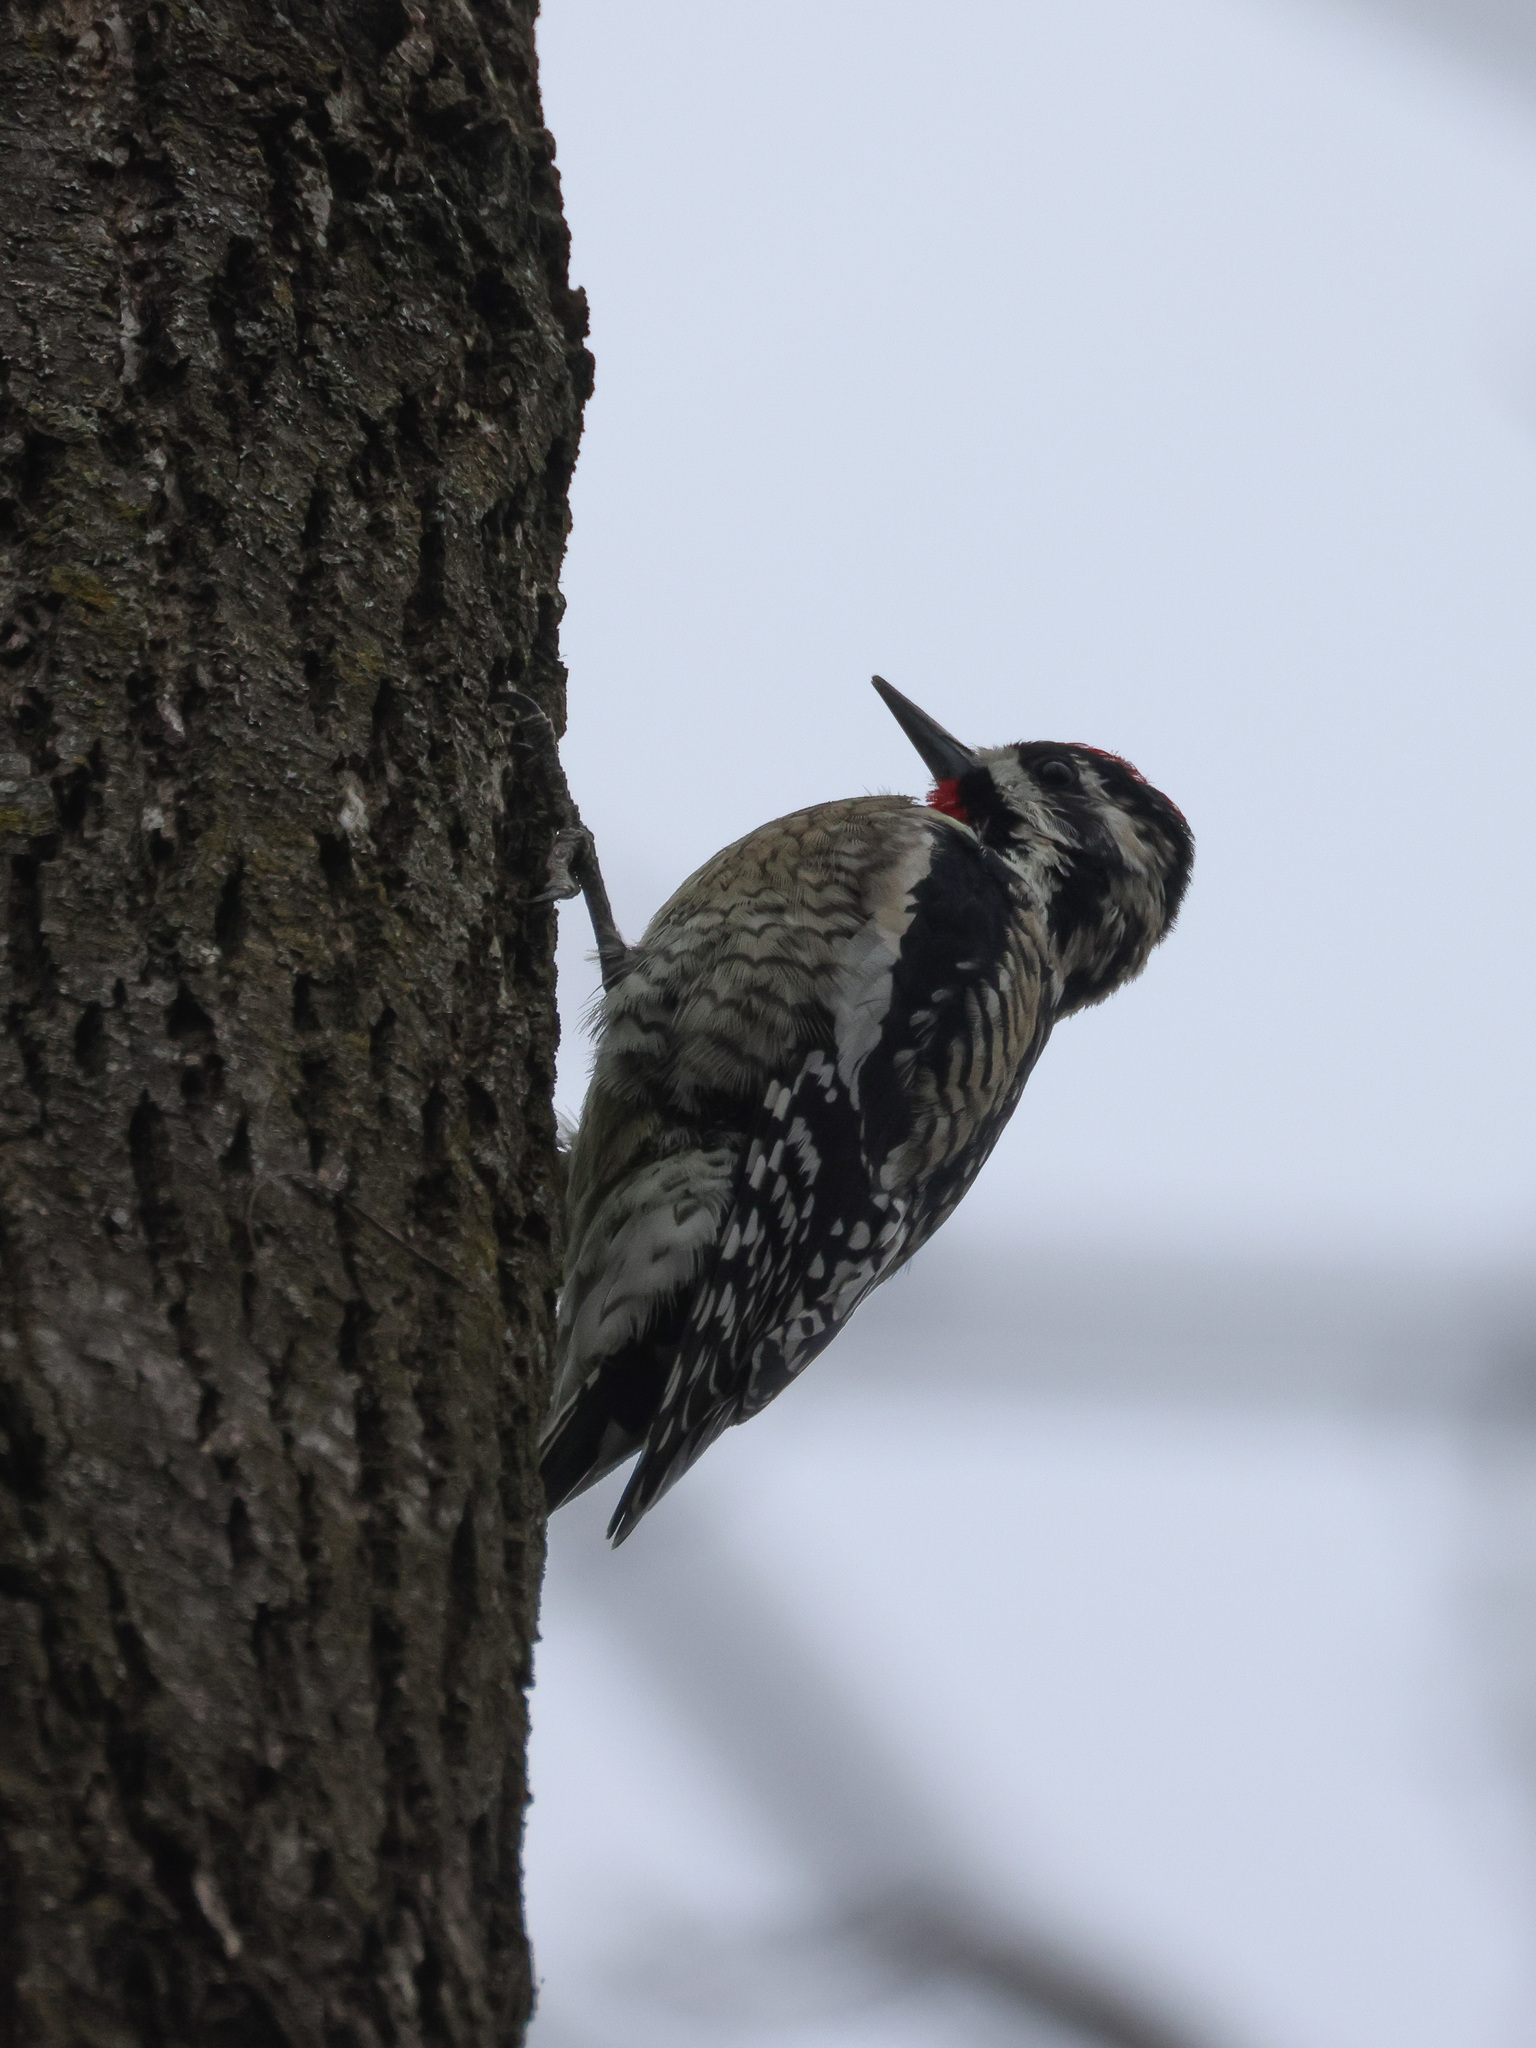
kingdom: Animalia
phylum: Chordata
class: Aves
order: Piciformes
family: Picidae
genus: Sphyrapicus
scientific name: Sphyrapicus varius
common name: Yellow-bellied sapsucker
